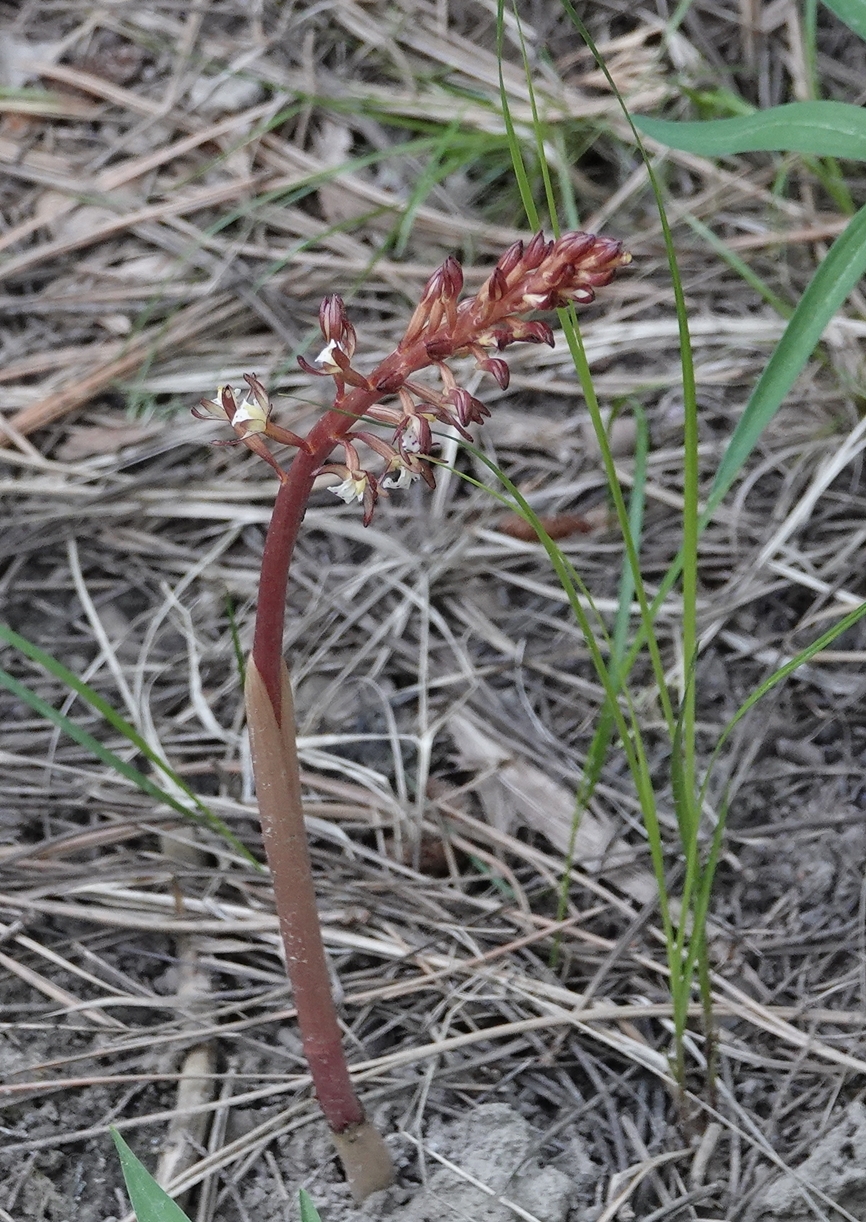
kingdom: Plantae
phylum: Tracheophyta
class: Liliopsida
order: Asparagales
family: Orchidaceae
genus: Corallorhiza
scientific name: Corallorhiza maculata
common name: Spotted coralroot
